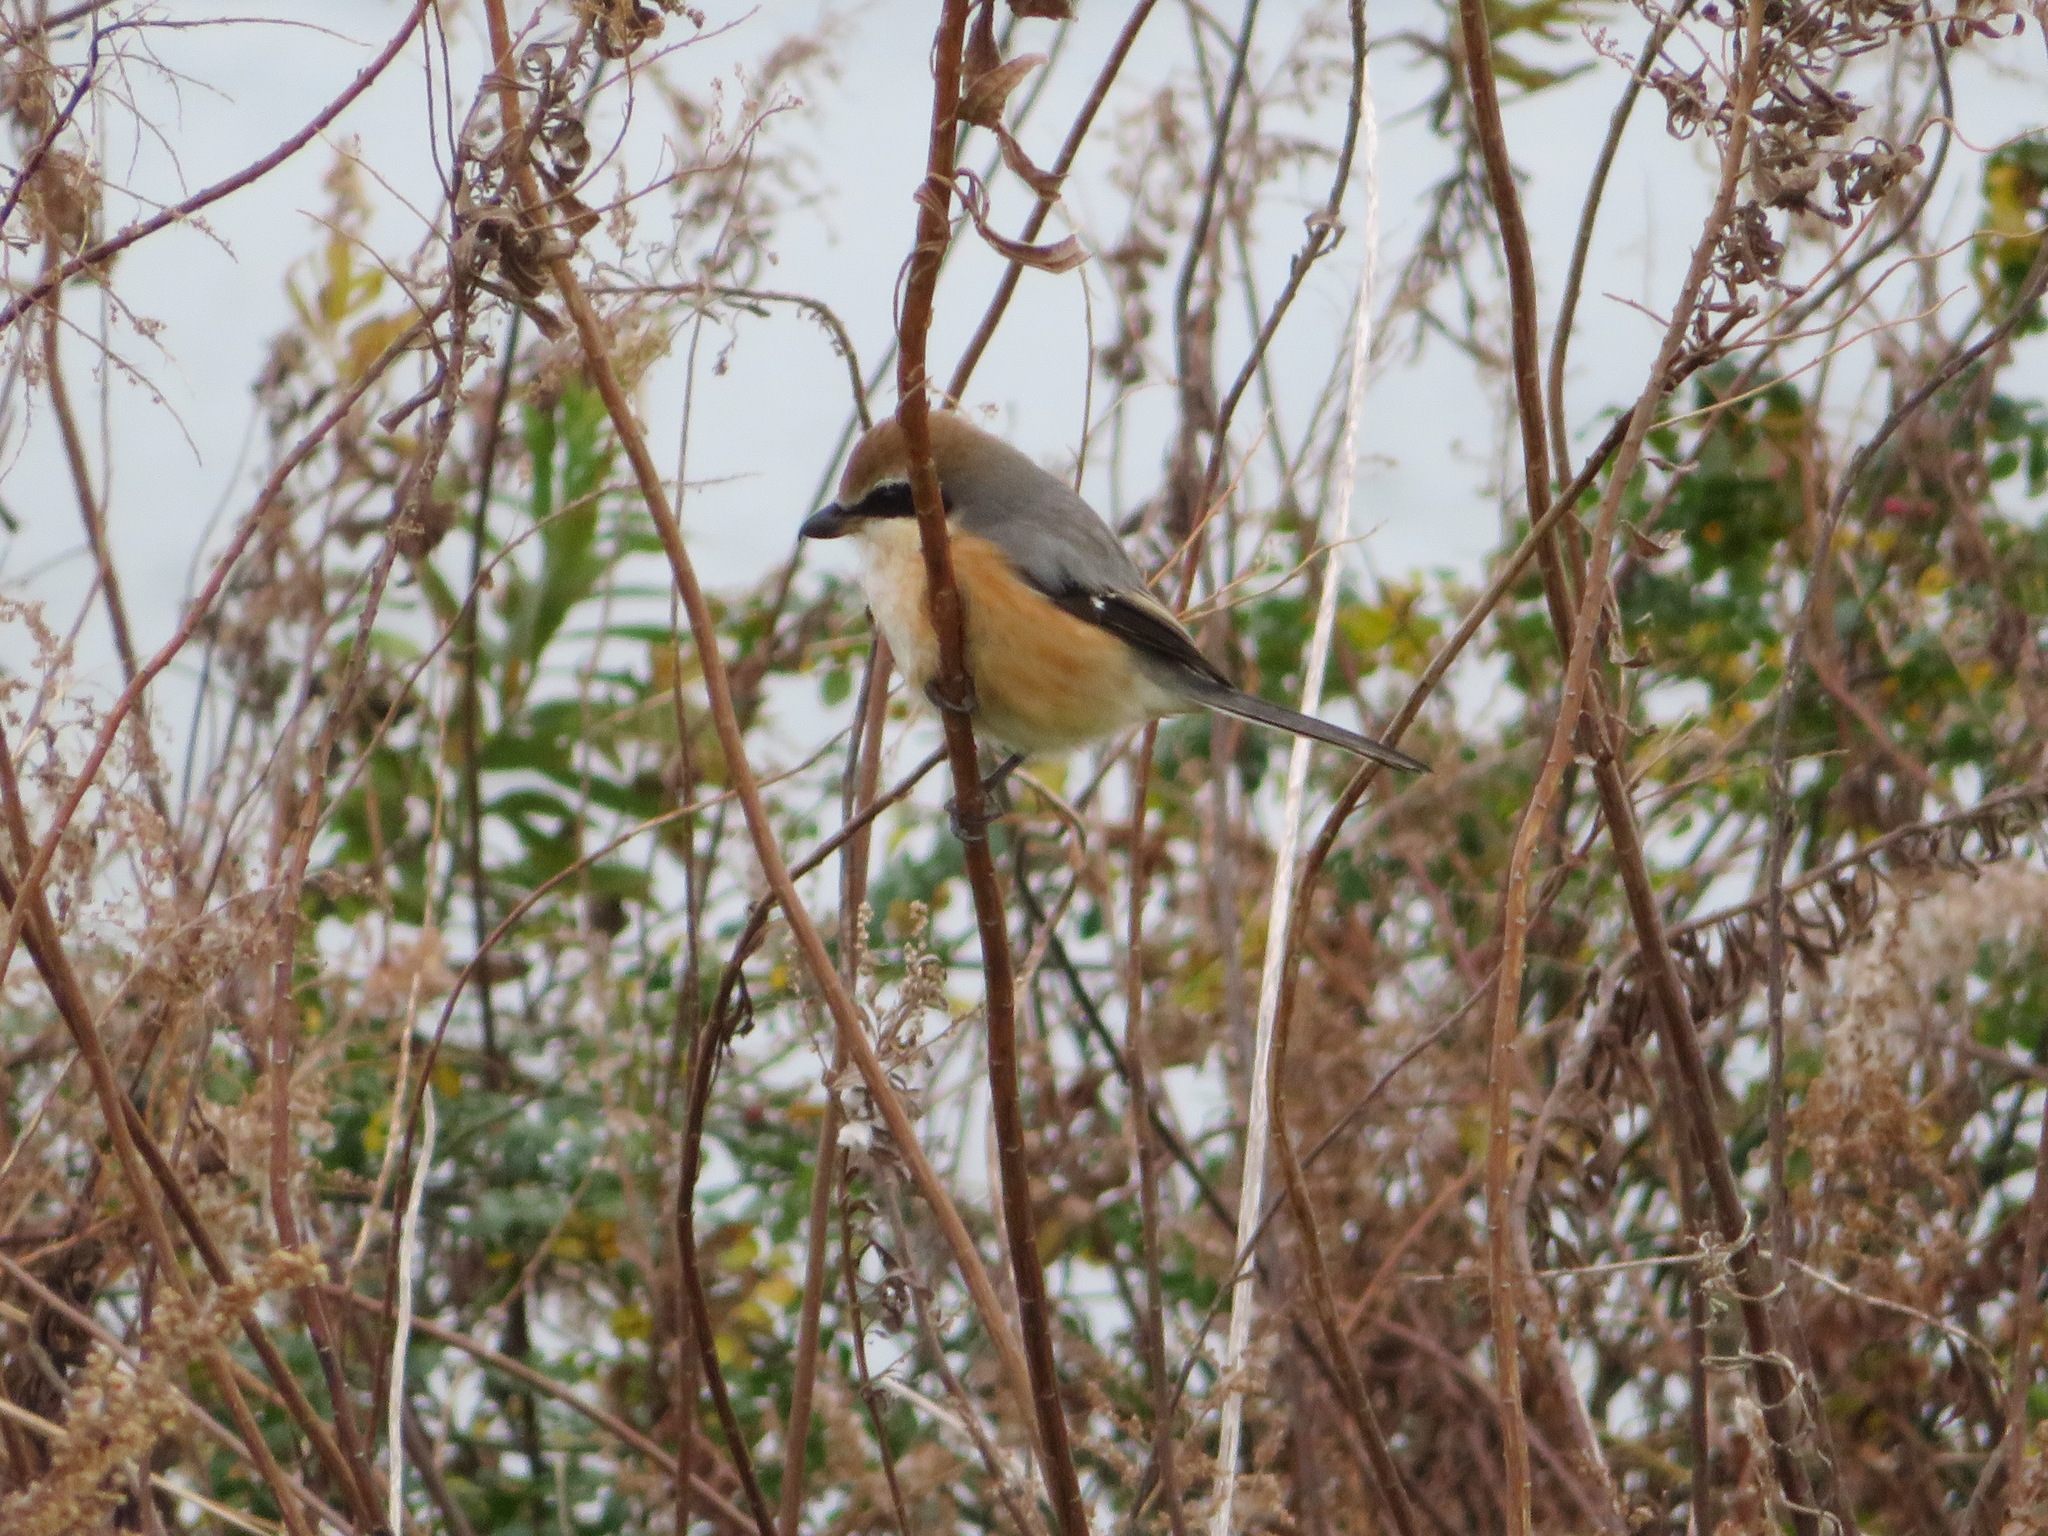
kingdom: Animalia
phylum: Chordata
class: Aves
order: Passeriformes
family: Laniidae
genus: Lanius
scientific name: Lanius bucephalus
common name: Bull-headed shrike
